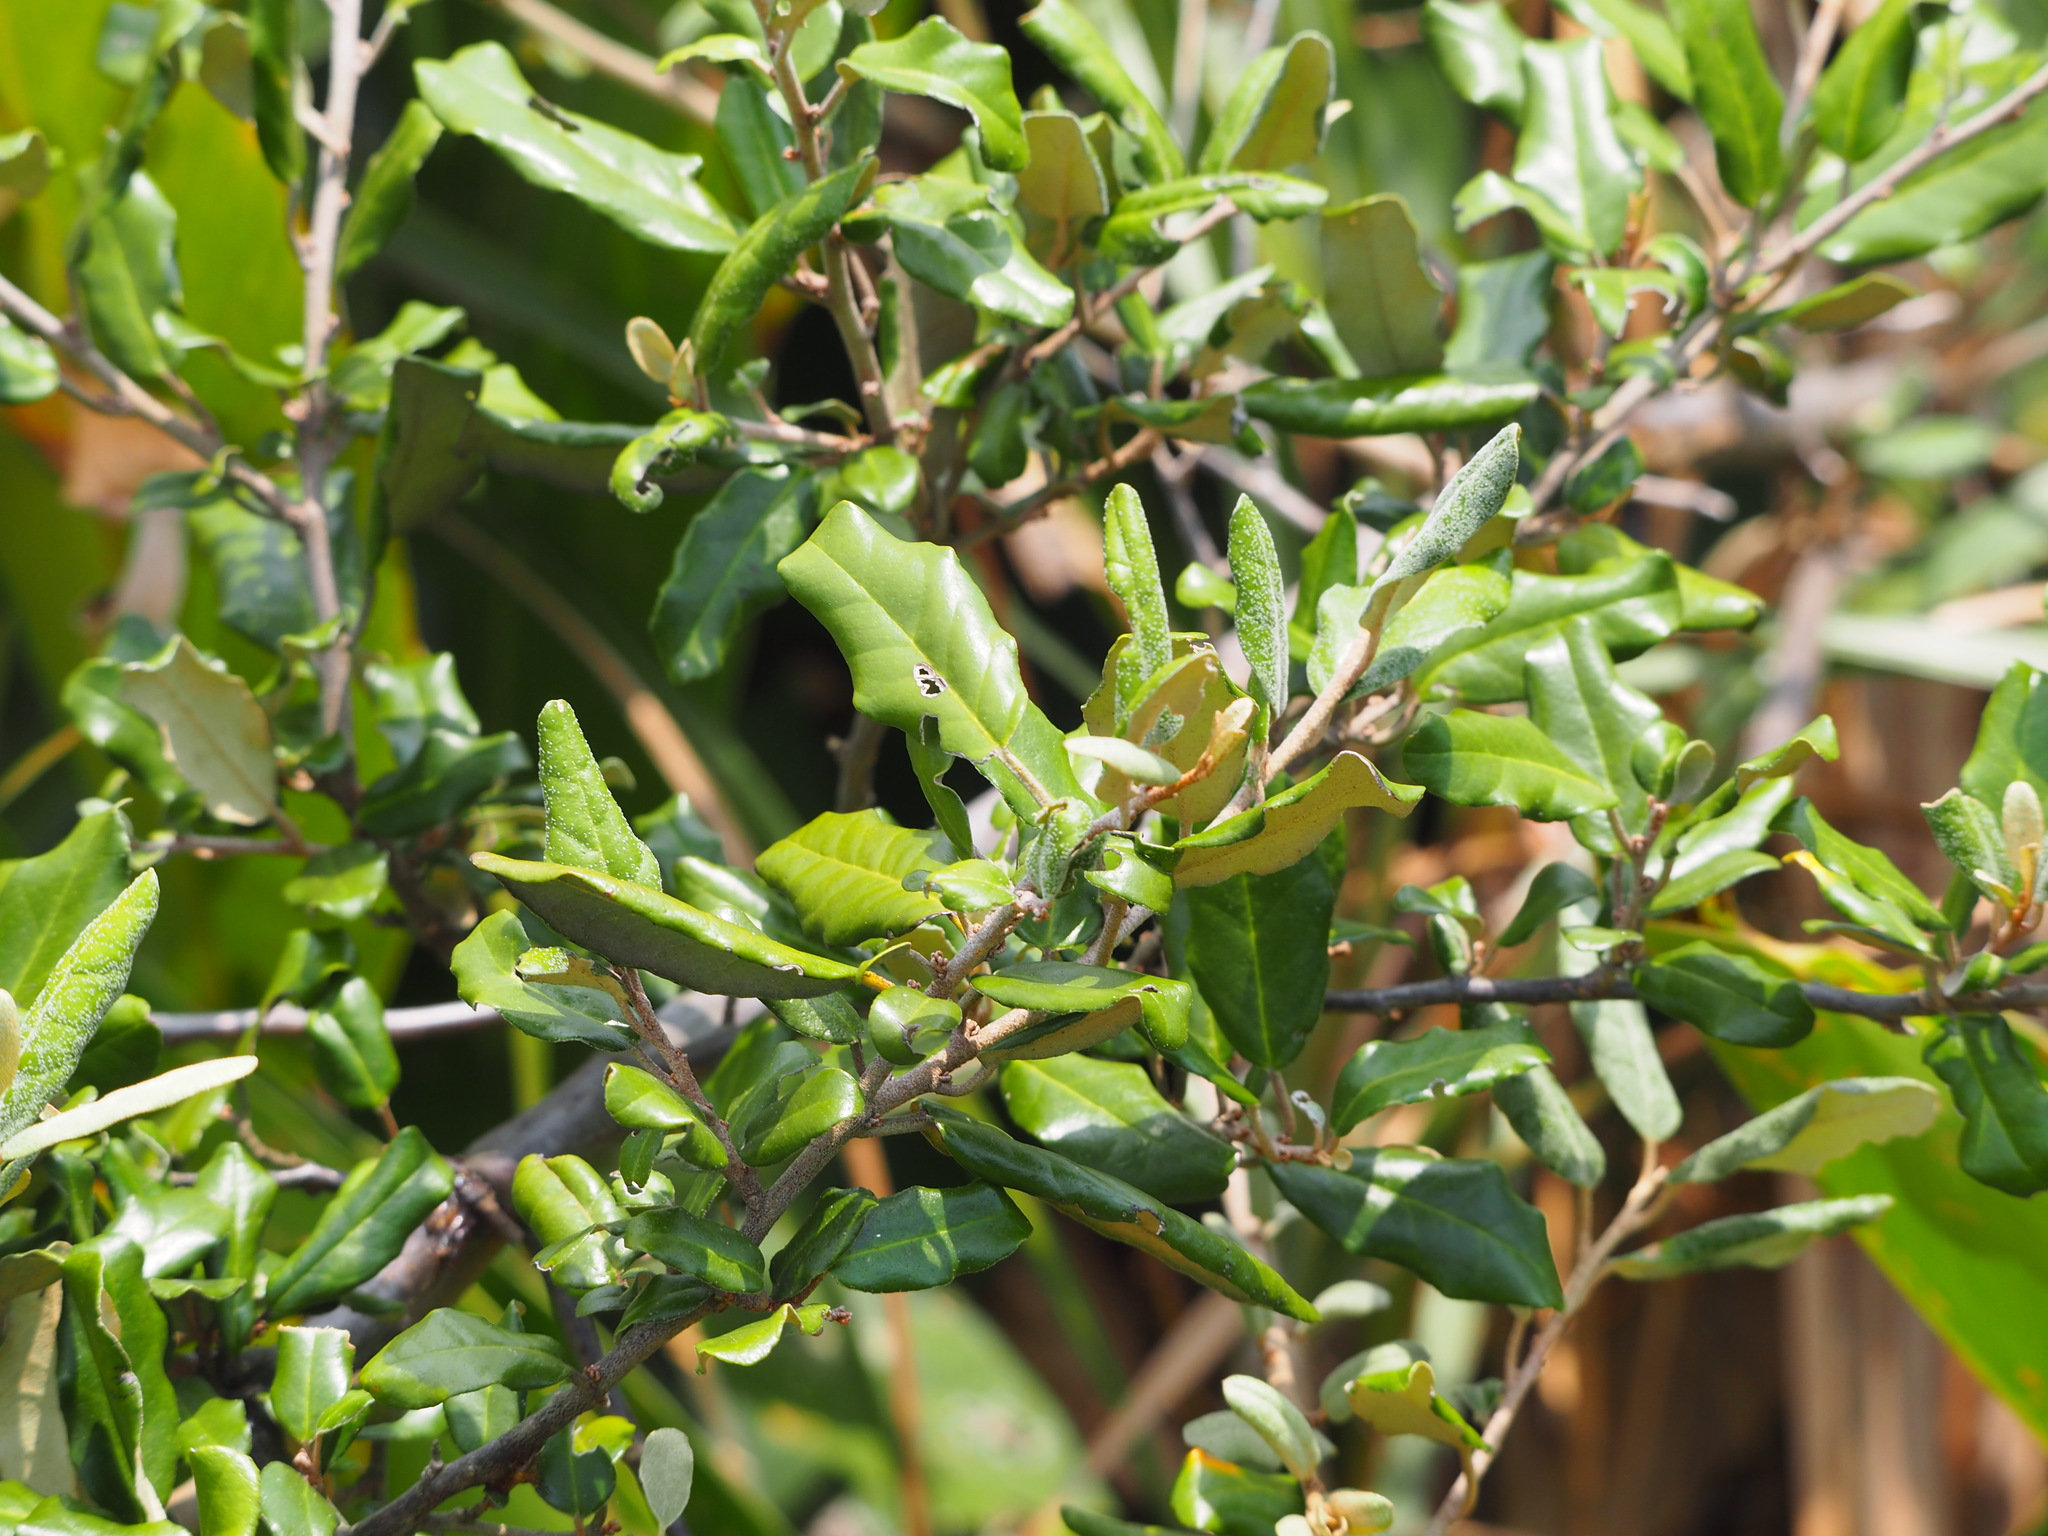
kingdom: Plantae
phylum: Tracheophyta
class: Magnoliopsida
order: Rosales
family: Elaeagnaceae
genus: Elaeagnus
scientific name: Elaeagnus formosana
